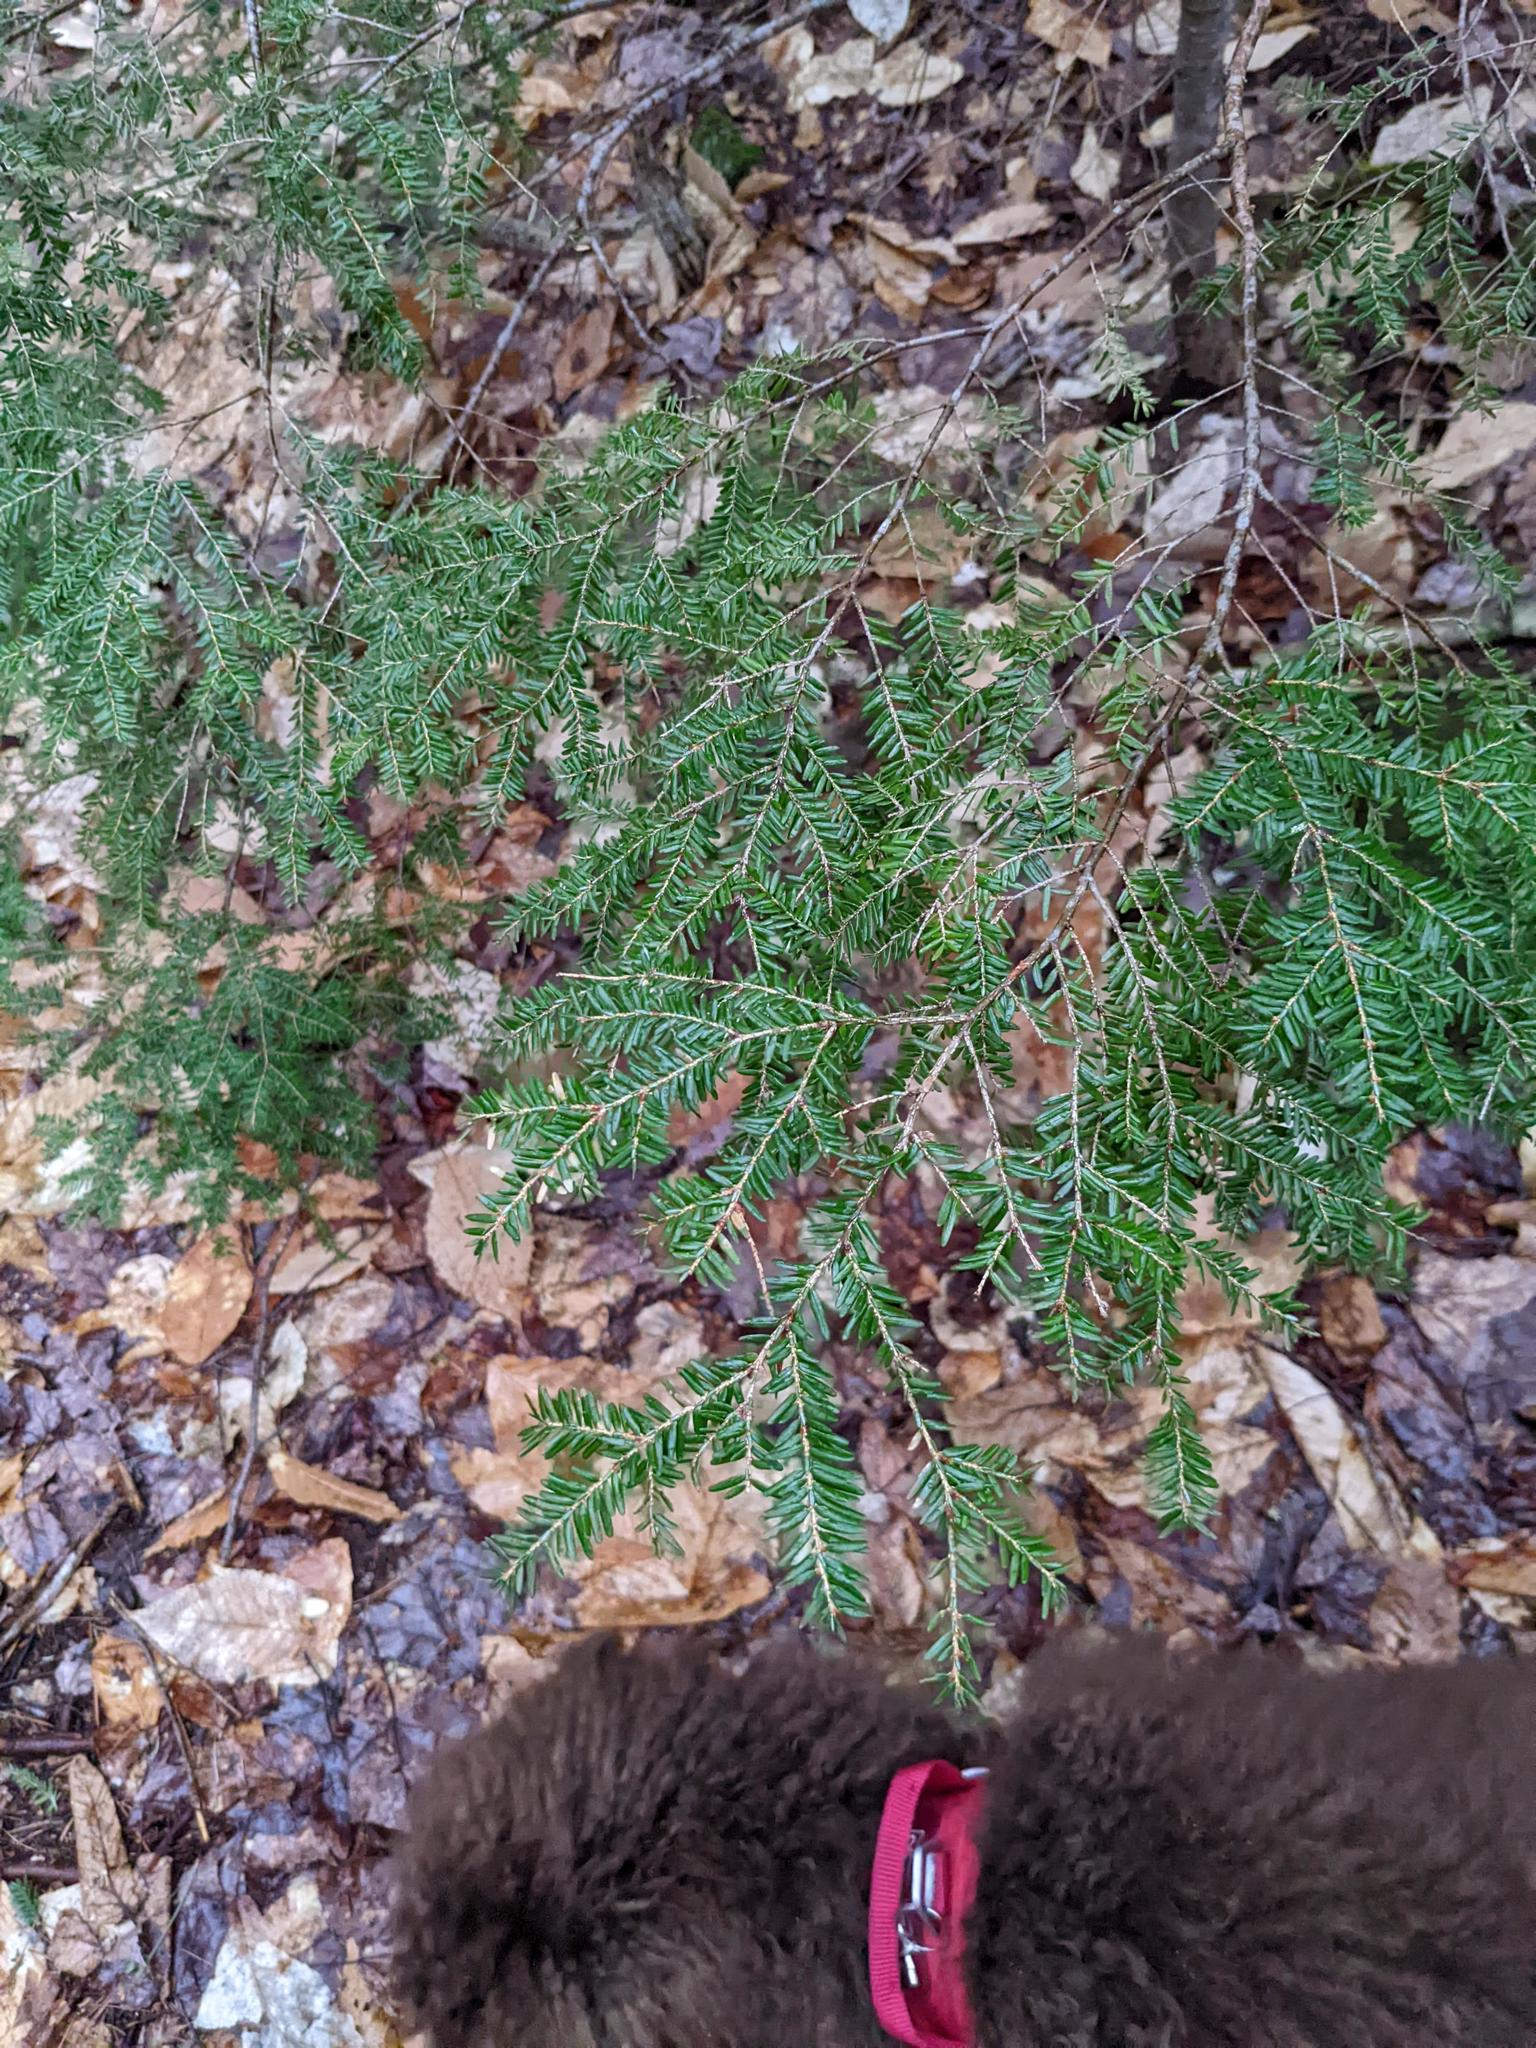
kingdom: Plantae
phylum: Tracheophyta
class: Pinopsida
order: Pinales
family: Pinaceae
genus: Tsuga
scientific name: Tsuga canadensis
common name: Eastern hemlock
